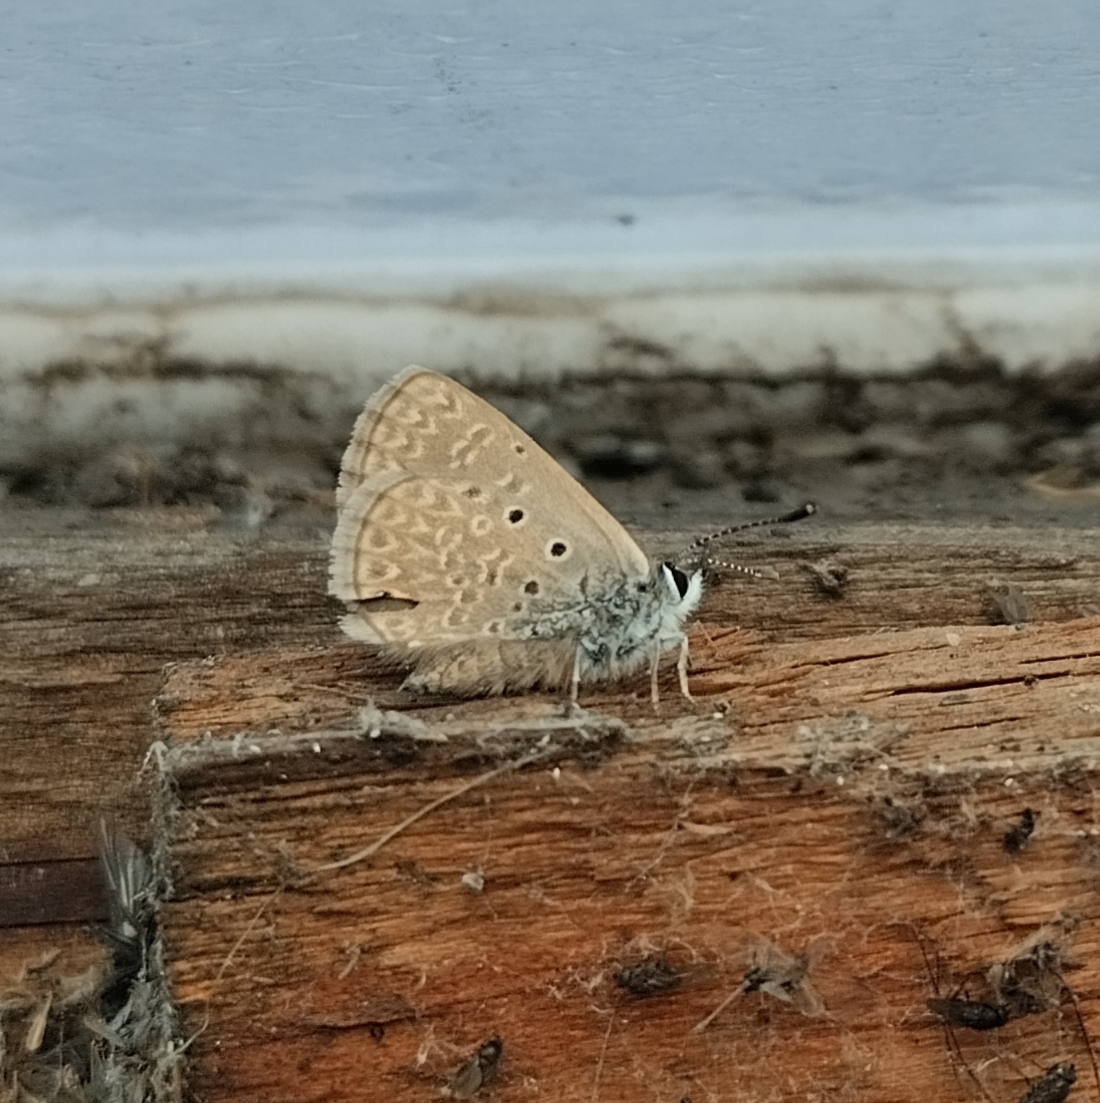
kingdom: Animalia
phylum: Arthropoda
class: Insecta
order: Lepidoptera
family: Lycaenidae
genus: Hemiargus
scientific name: Hemiargus hanno
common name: Common blue
